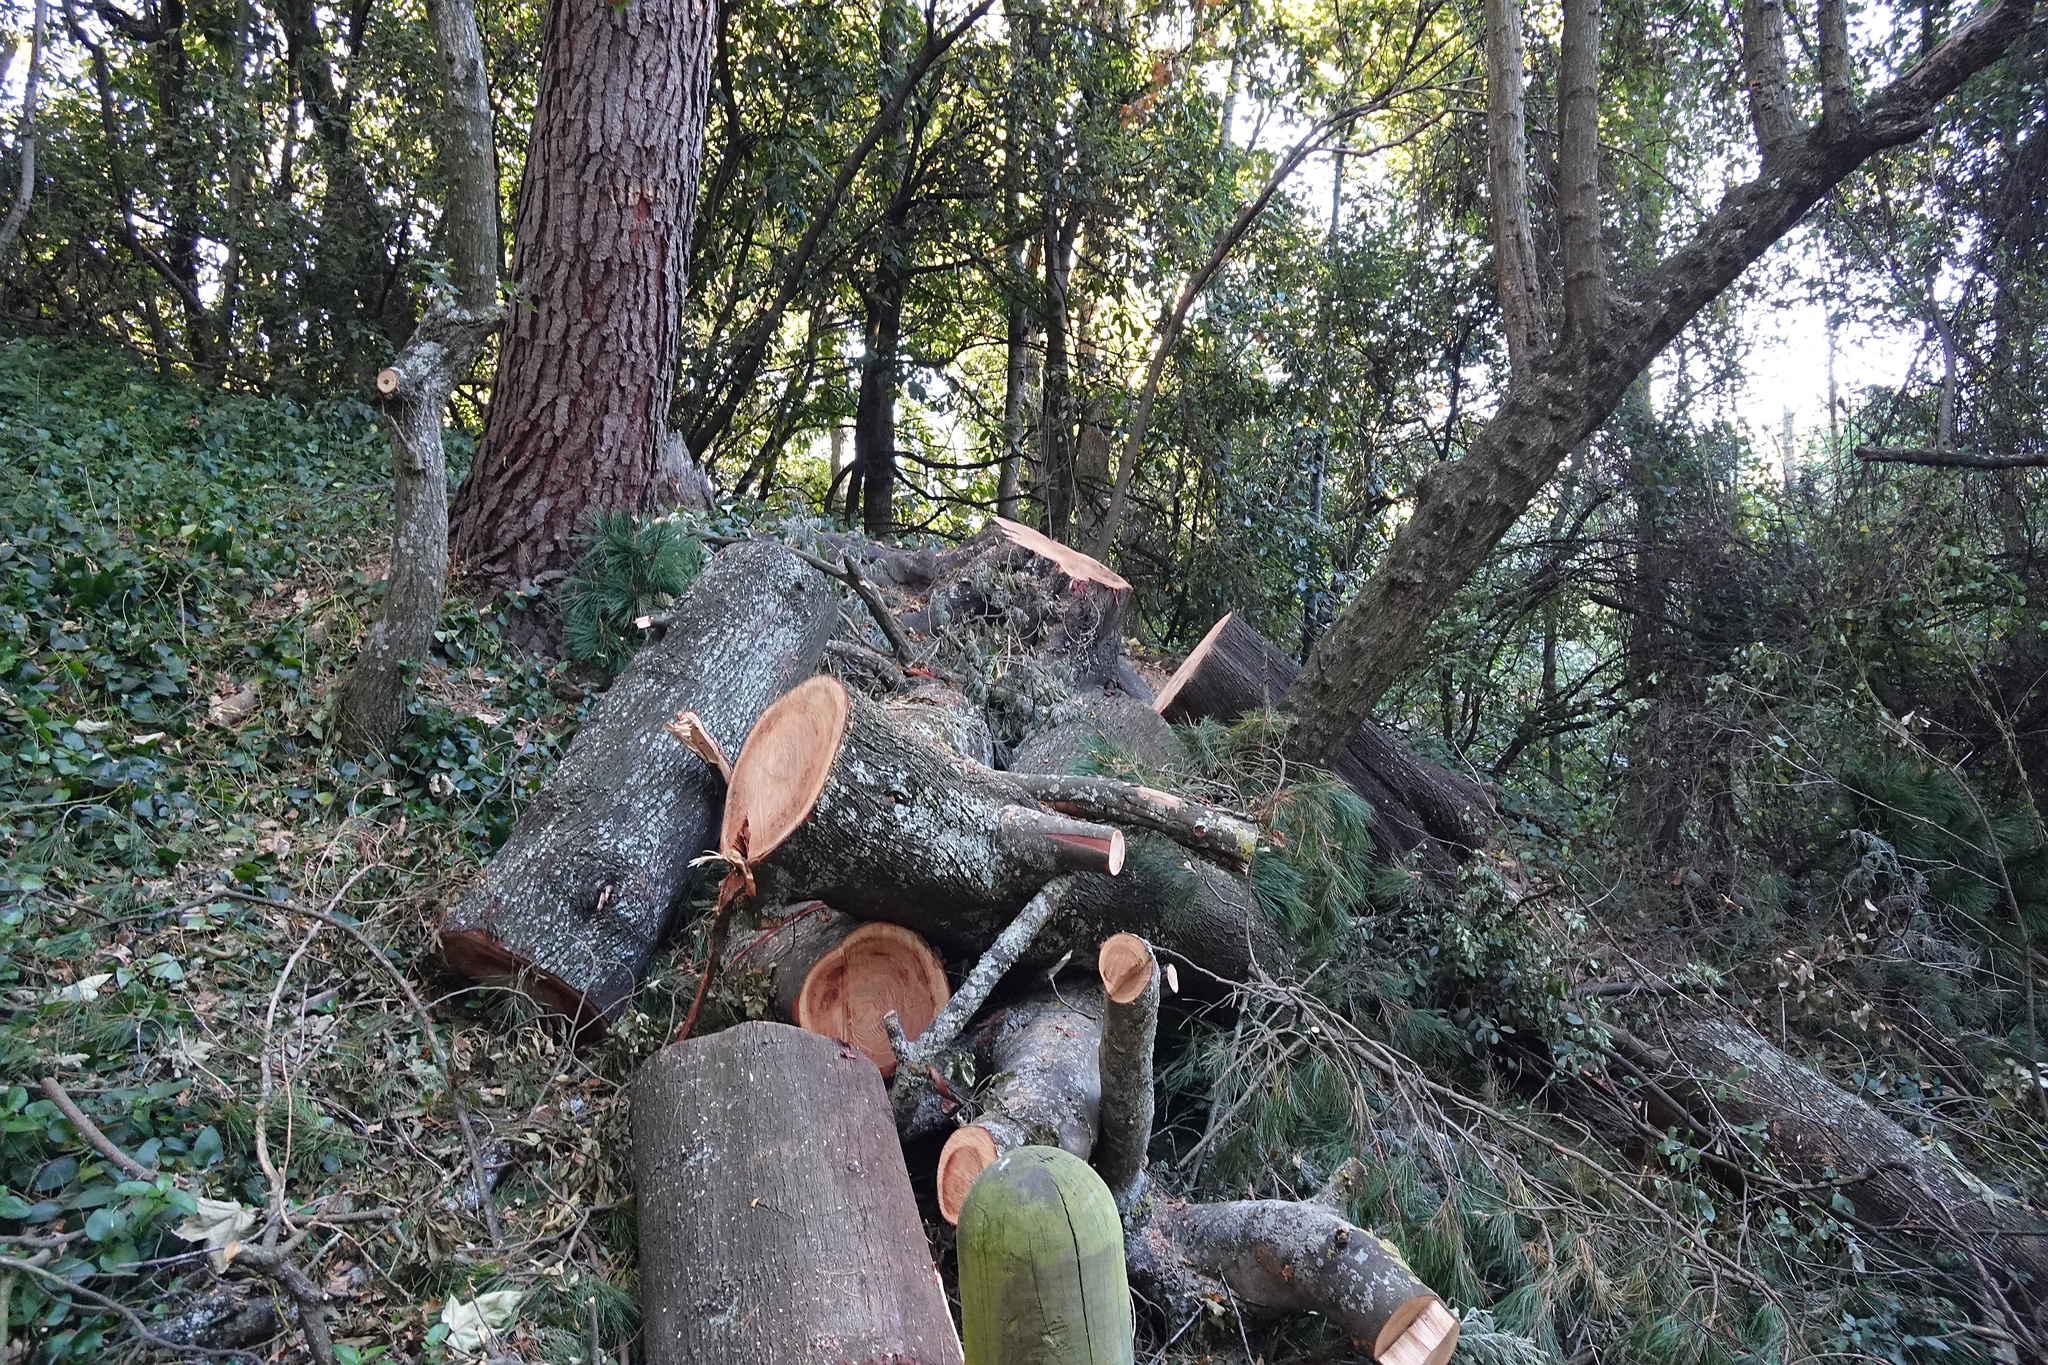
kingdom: Plantae
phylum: Tracheophyta
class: Magnoliopsida
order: Fabales
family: Fabaceae
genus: Acacia
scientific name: Acacia dealbata
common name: Silver wattle
